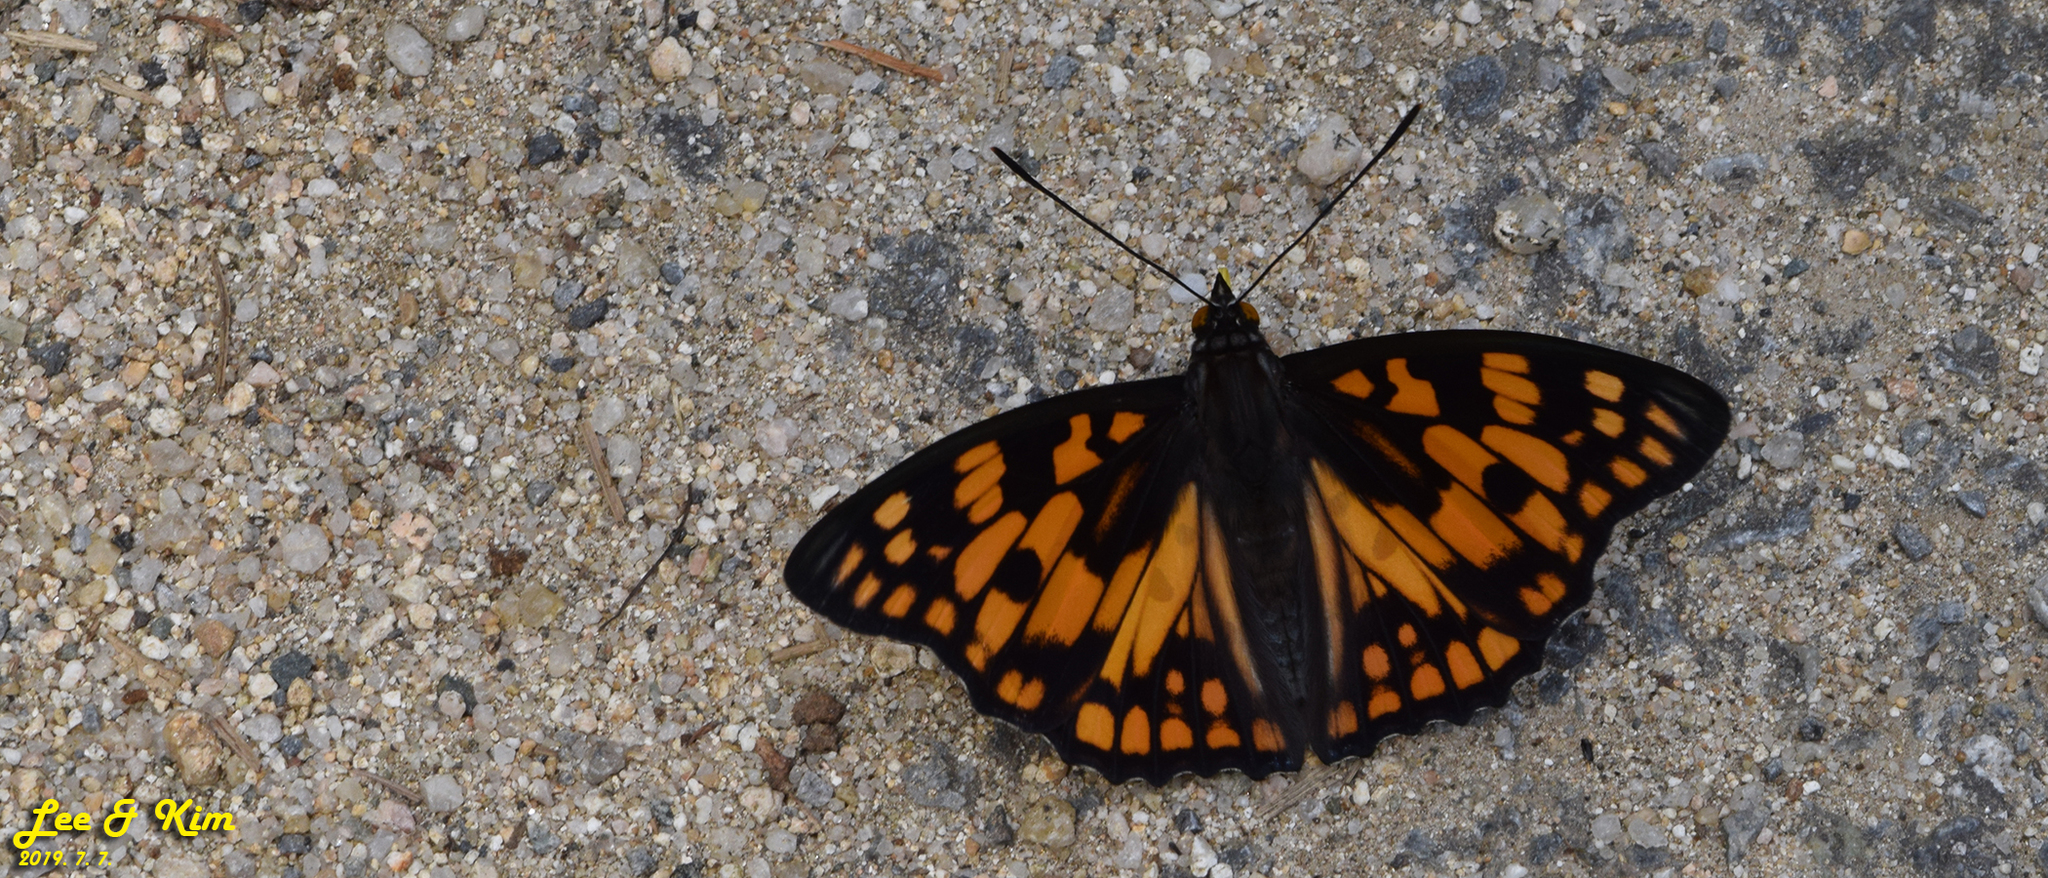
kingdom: Animalia
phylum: Arthropoda
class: Insecta
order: Lepidoptera
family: Nymphalidae
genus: Sephisa
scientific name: Sephisa dichroa
